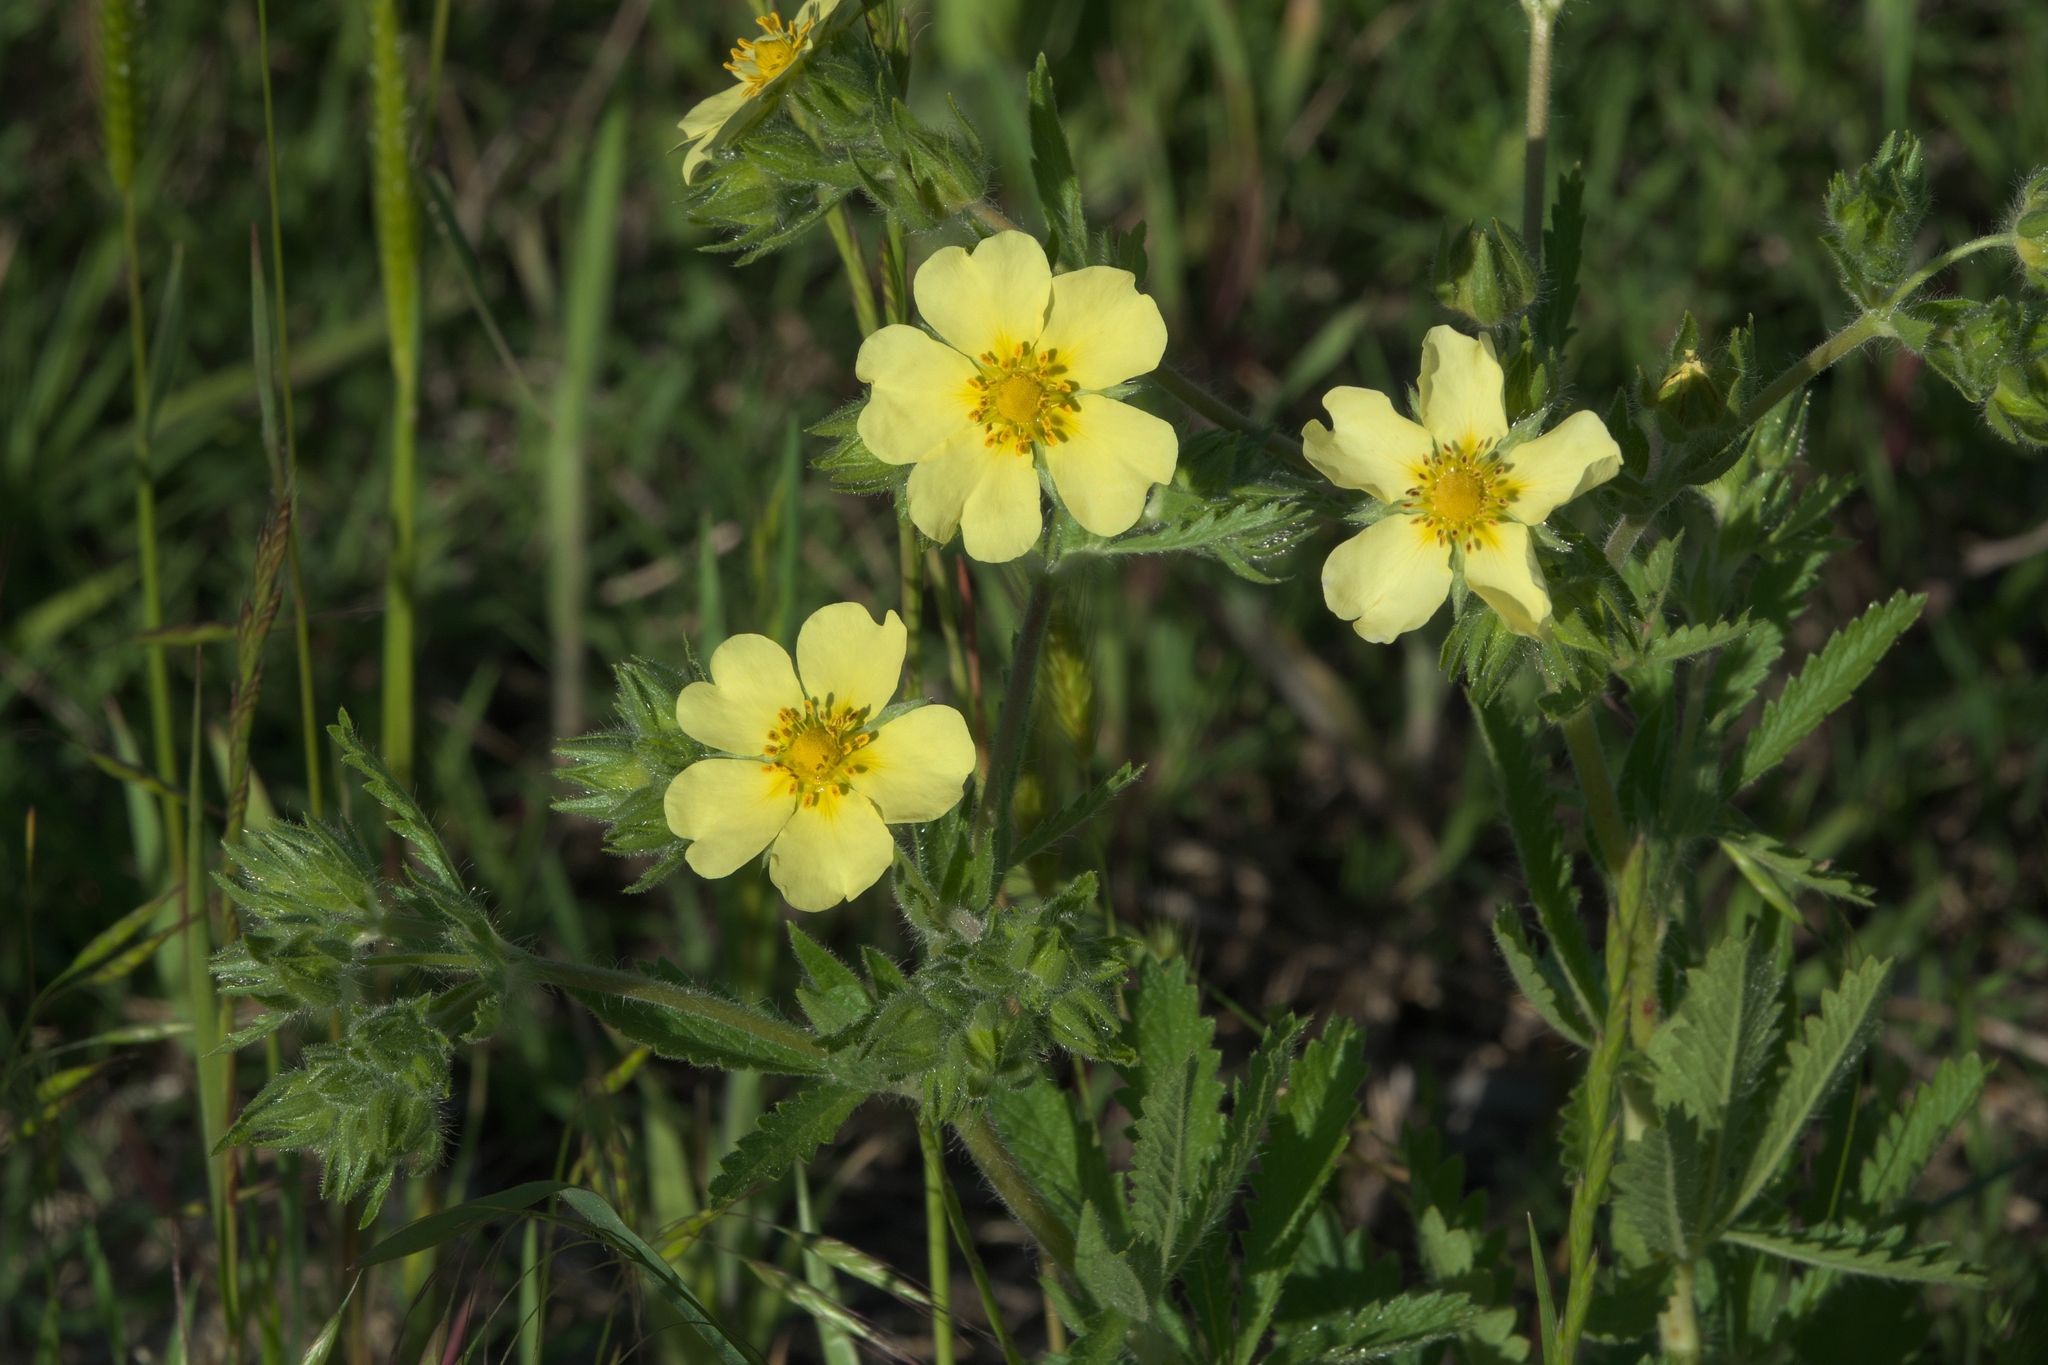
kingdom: Plantae
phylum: Tracheophyta
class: Magnoliopsida
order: Rosales
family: Rosaceae
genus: Potentilla
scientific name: Potentilla recta
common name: Sulphur cinquefoil
